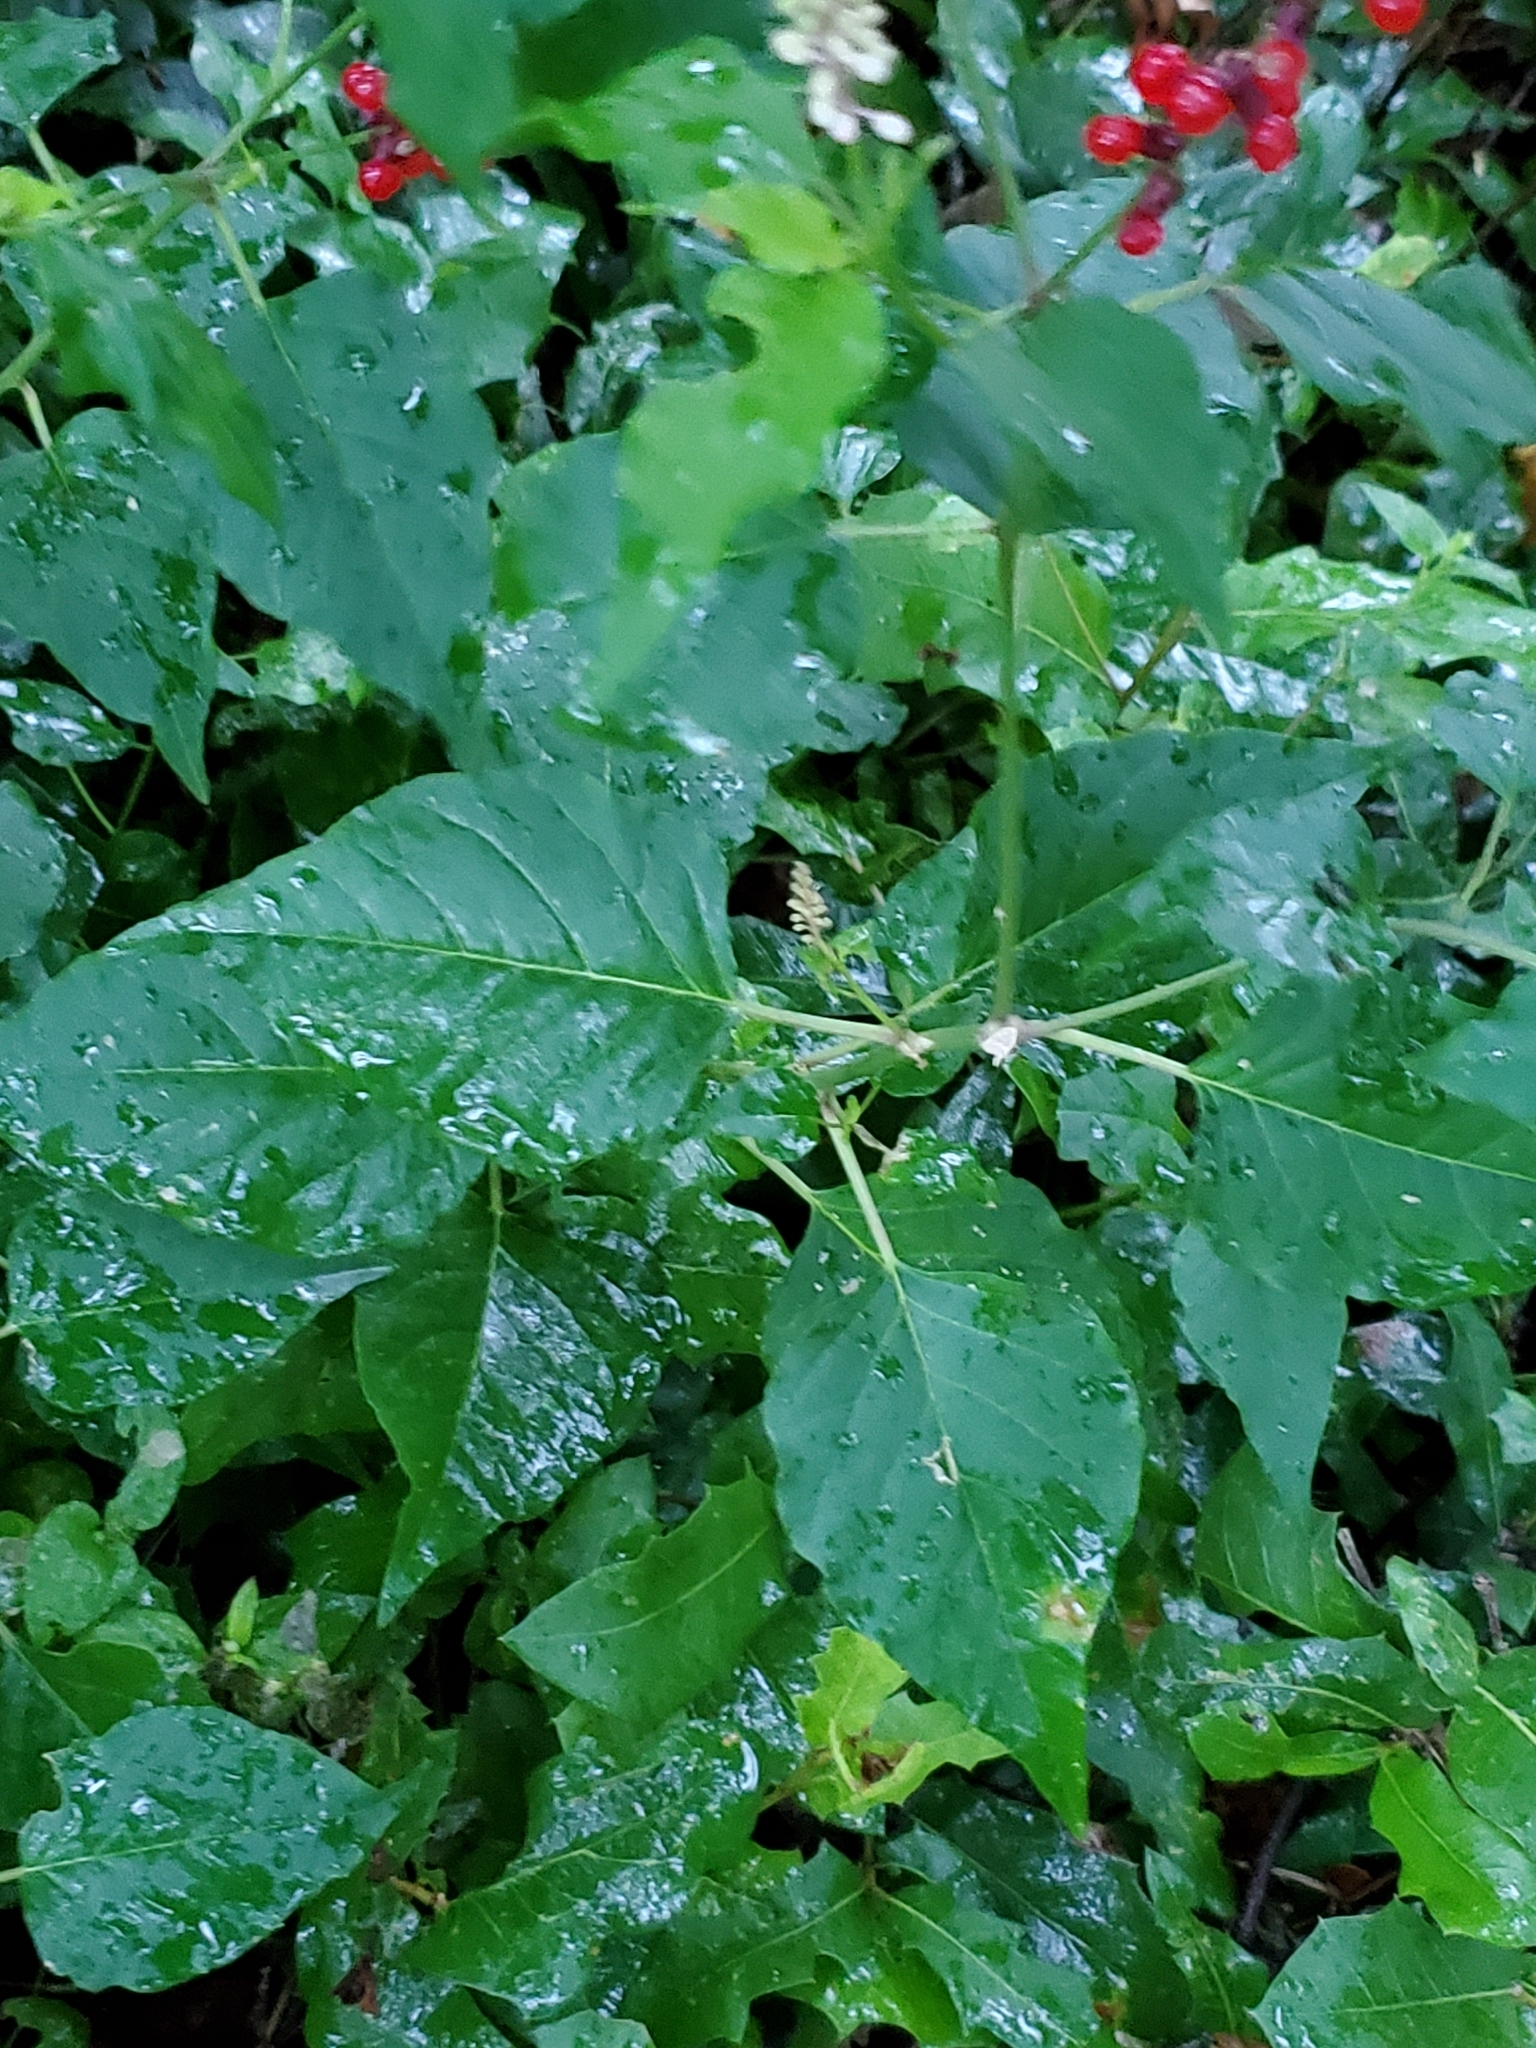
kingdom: Plantae
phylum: Tracheophyta
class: Magnoliopsida
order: Caryophyllales
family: Phytolaccaceae
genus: Rivina
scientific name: Rivina humilis
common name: Rougeplant
